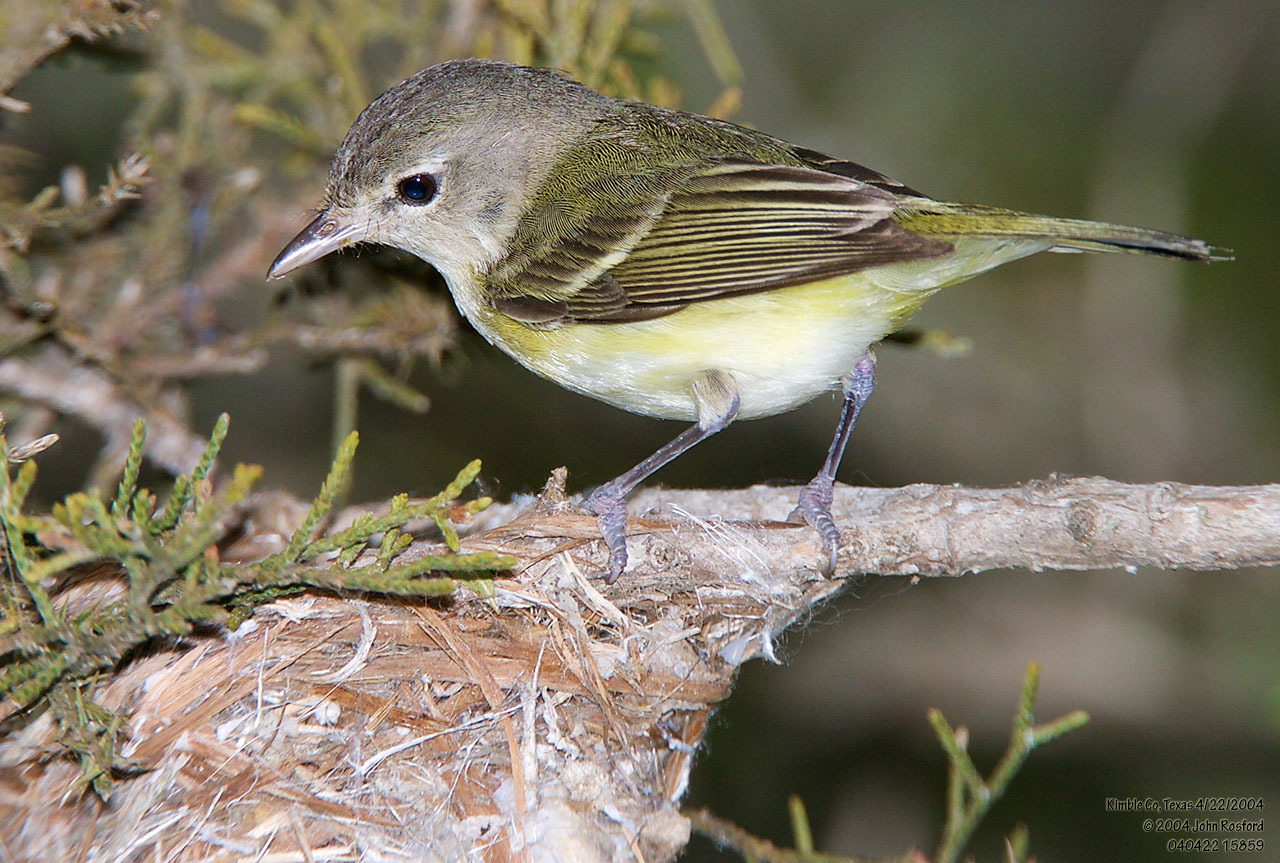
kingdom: Animalia
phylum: Chordata
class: Aves
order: Passeriformes
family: Vireonidae
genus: Vireo
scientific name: Vireo bellii
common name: Bell's vireo
